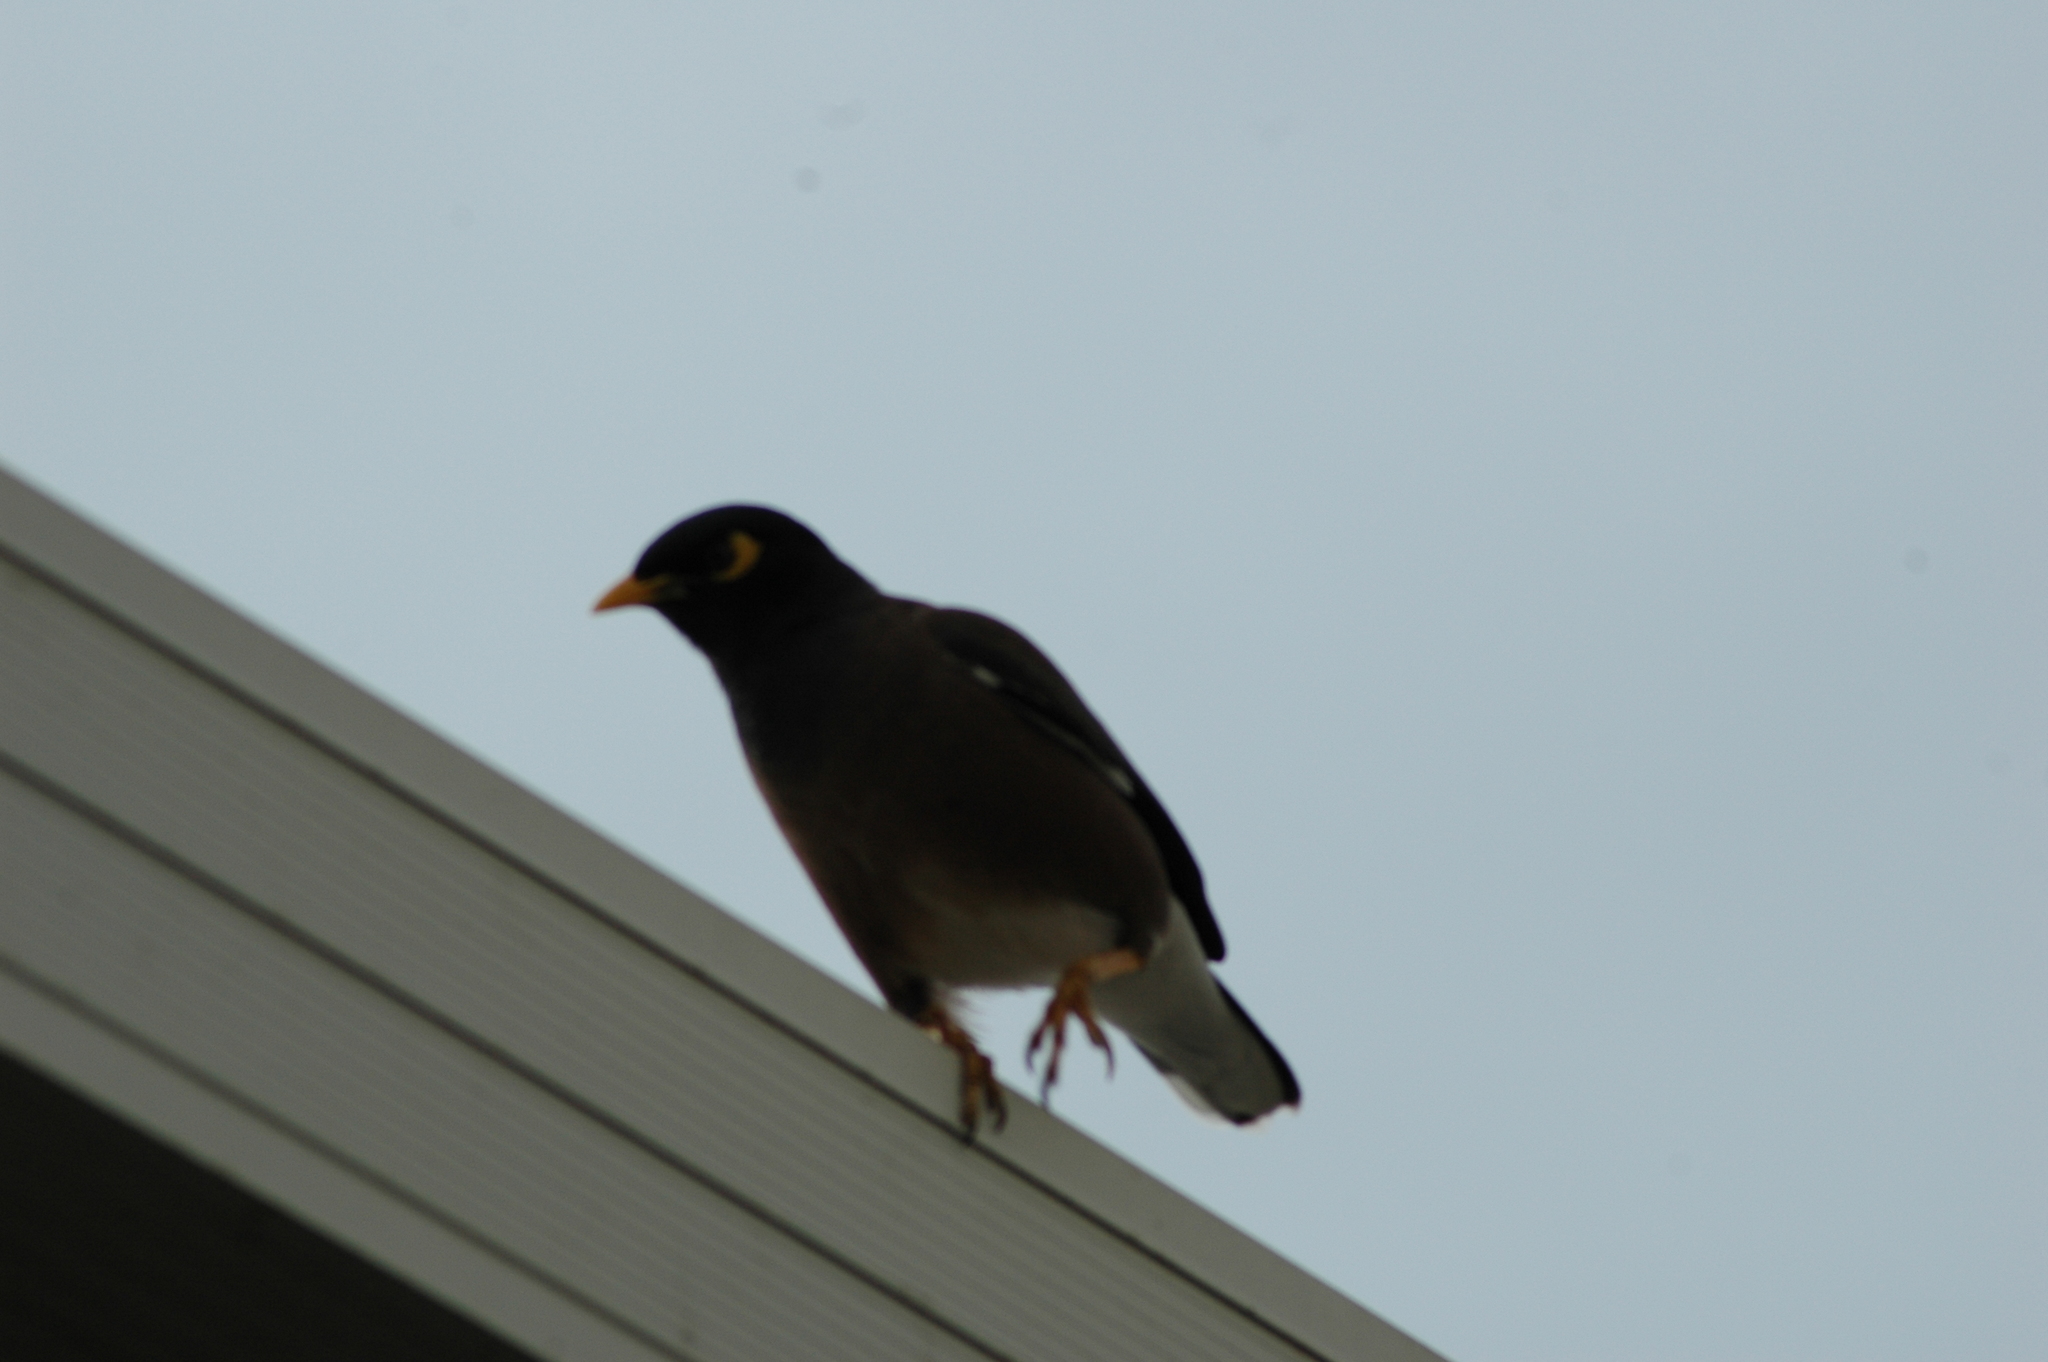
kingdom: Animalia
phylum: Chordata
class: Aves
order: Passeriformes
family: Sturnidae
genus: Acridotheres
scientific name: Acridotheres tristis
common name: Common myna
